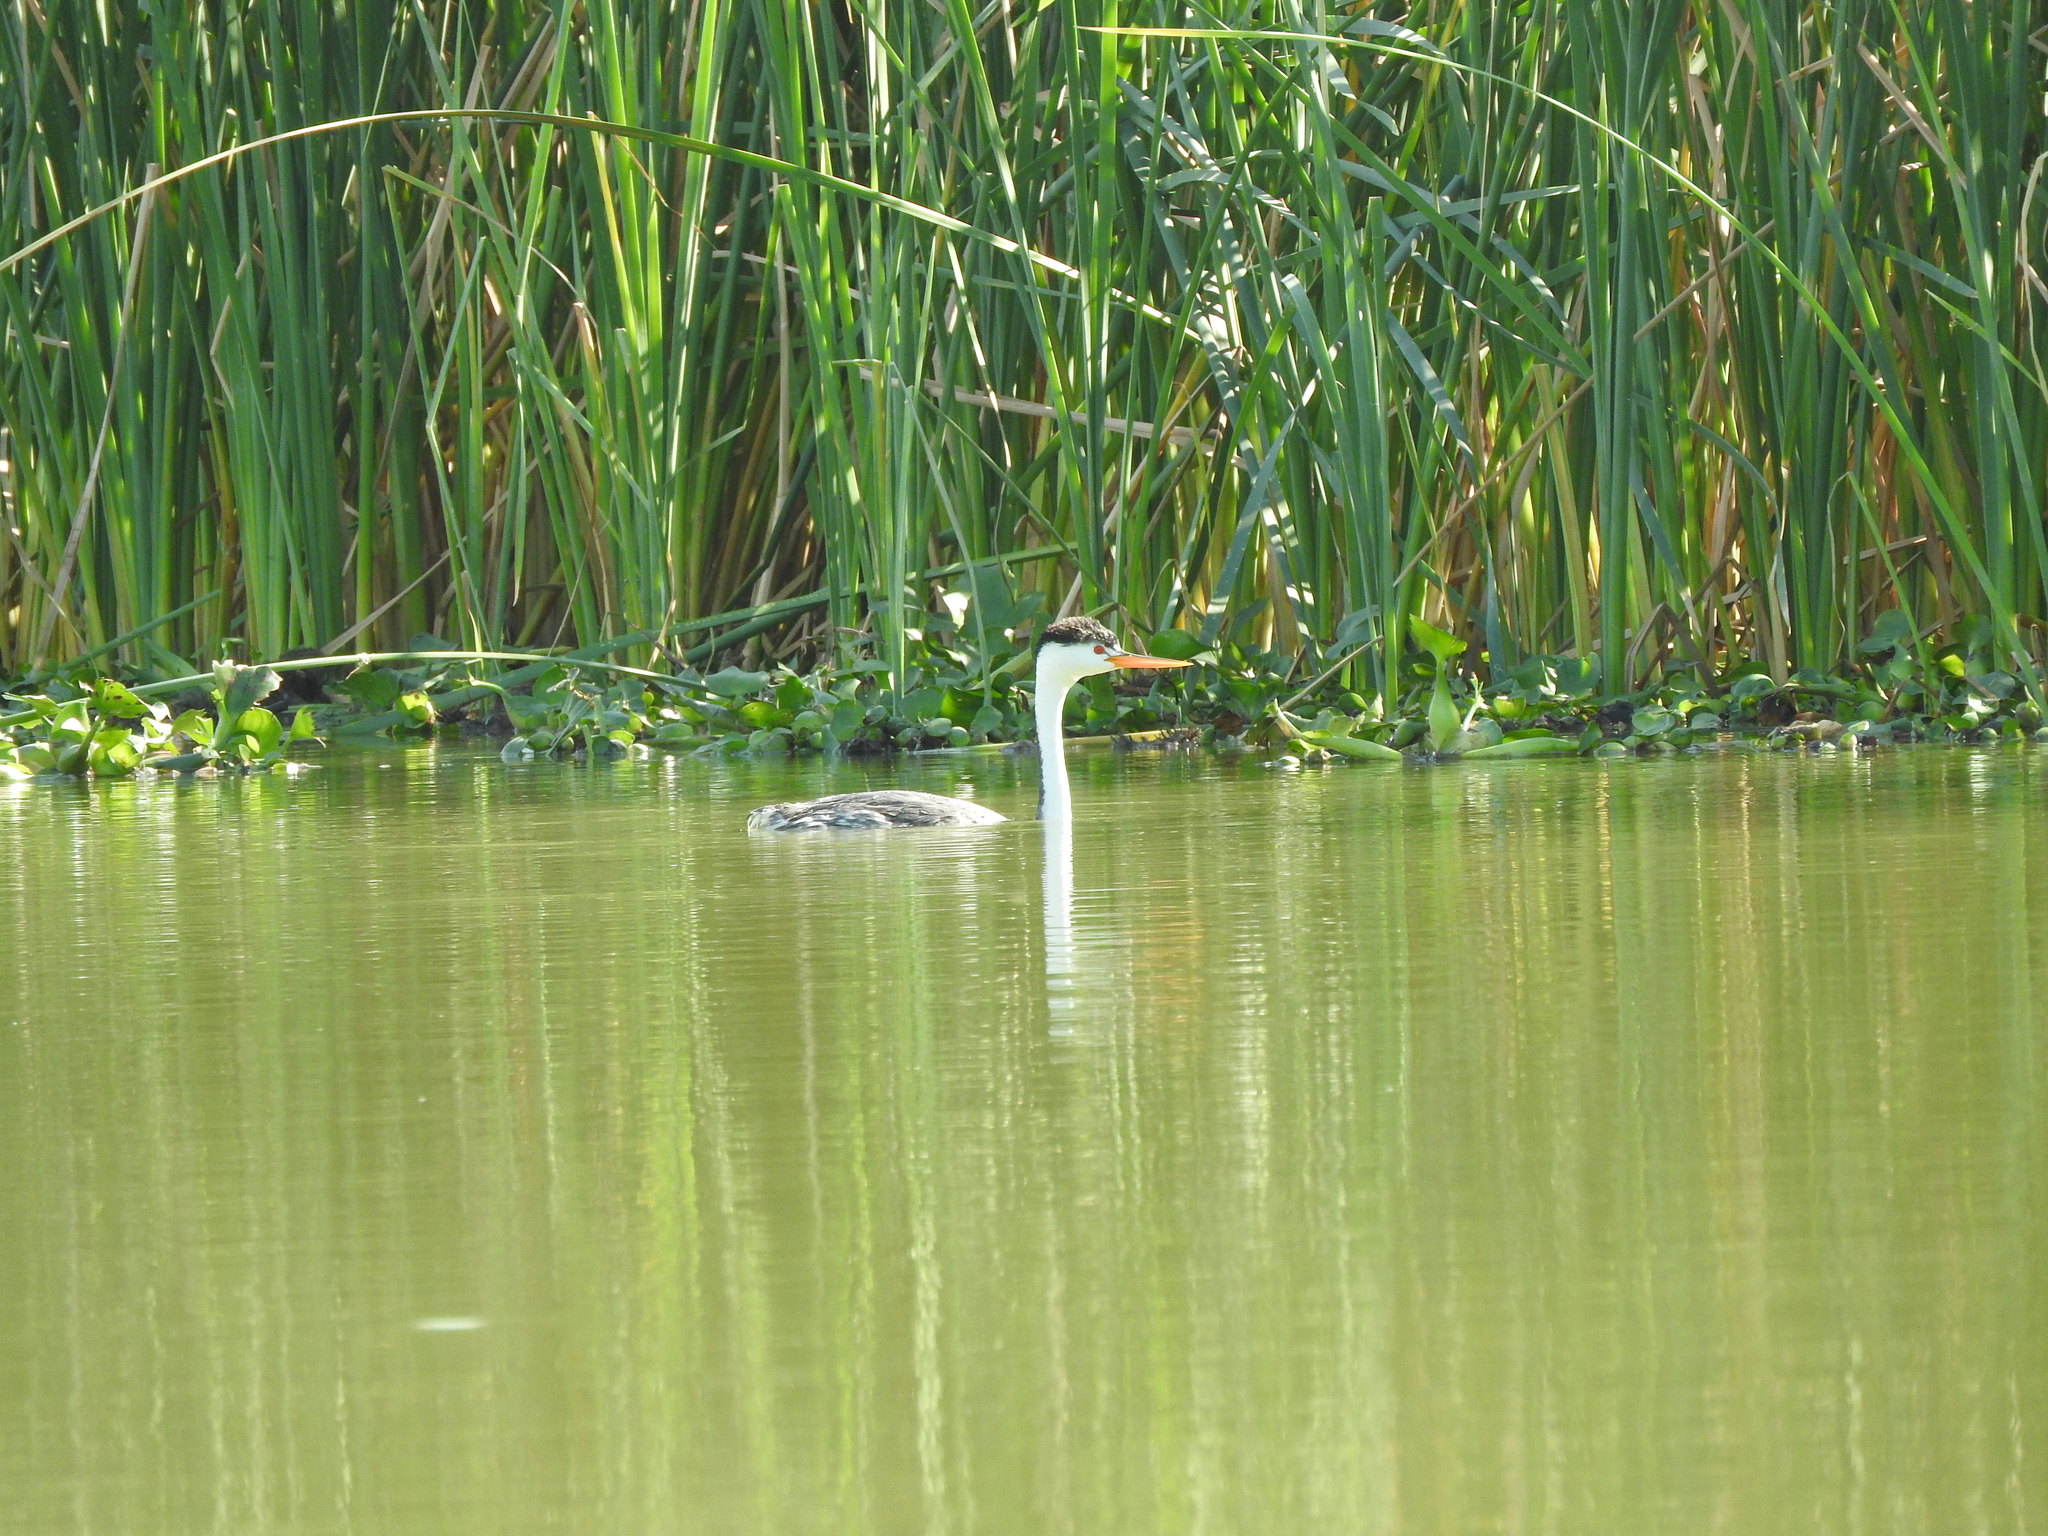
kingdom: Animalia
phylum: Chordata
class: Aves
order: Podicipediformes
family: Podicipedidae
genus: Aechmophorus
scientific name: Aechmophorus clarkii
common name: Clark's grebe
